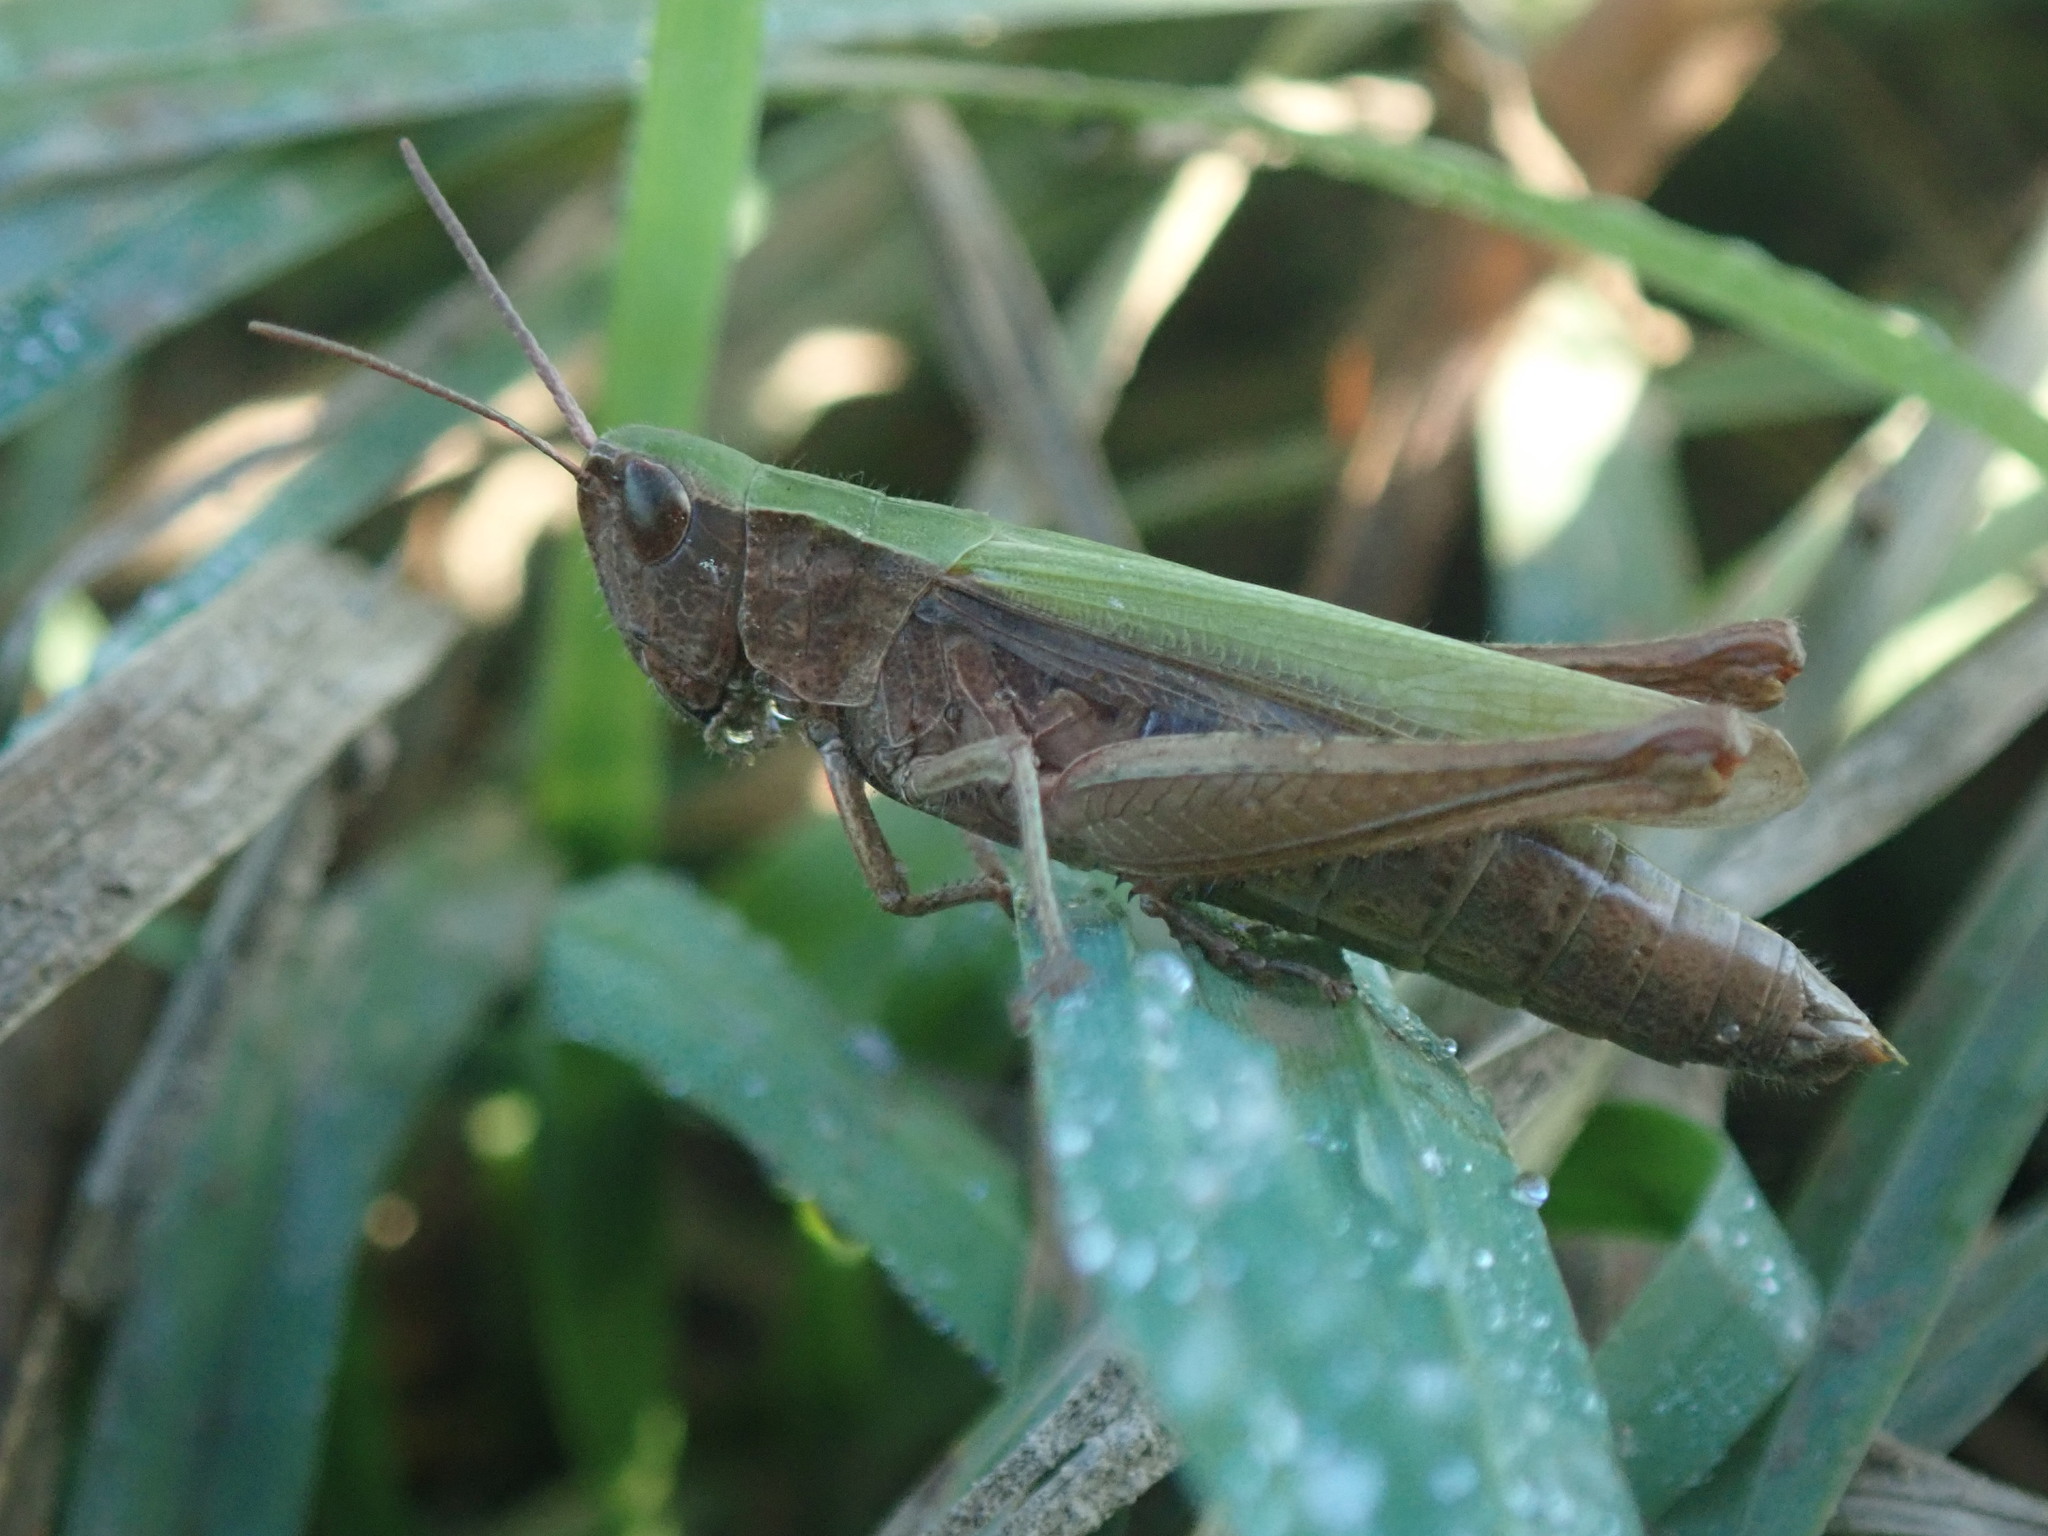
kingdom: Animalia
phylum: Arthropoda
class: Insecta
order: Orthoptera
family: Acrididae
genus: Chorthippus
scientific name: Chorthippus dorsatus
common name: Steppe grasshopper
